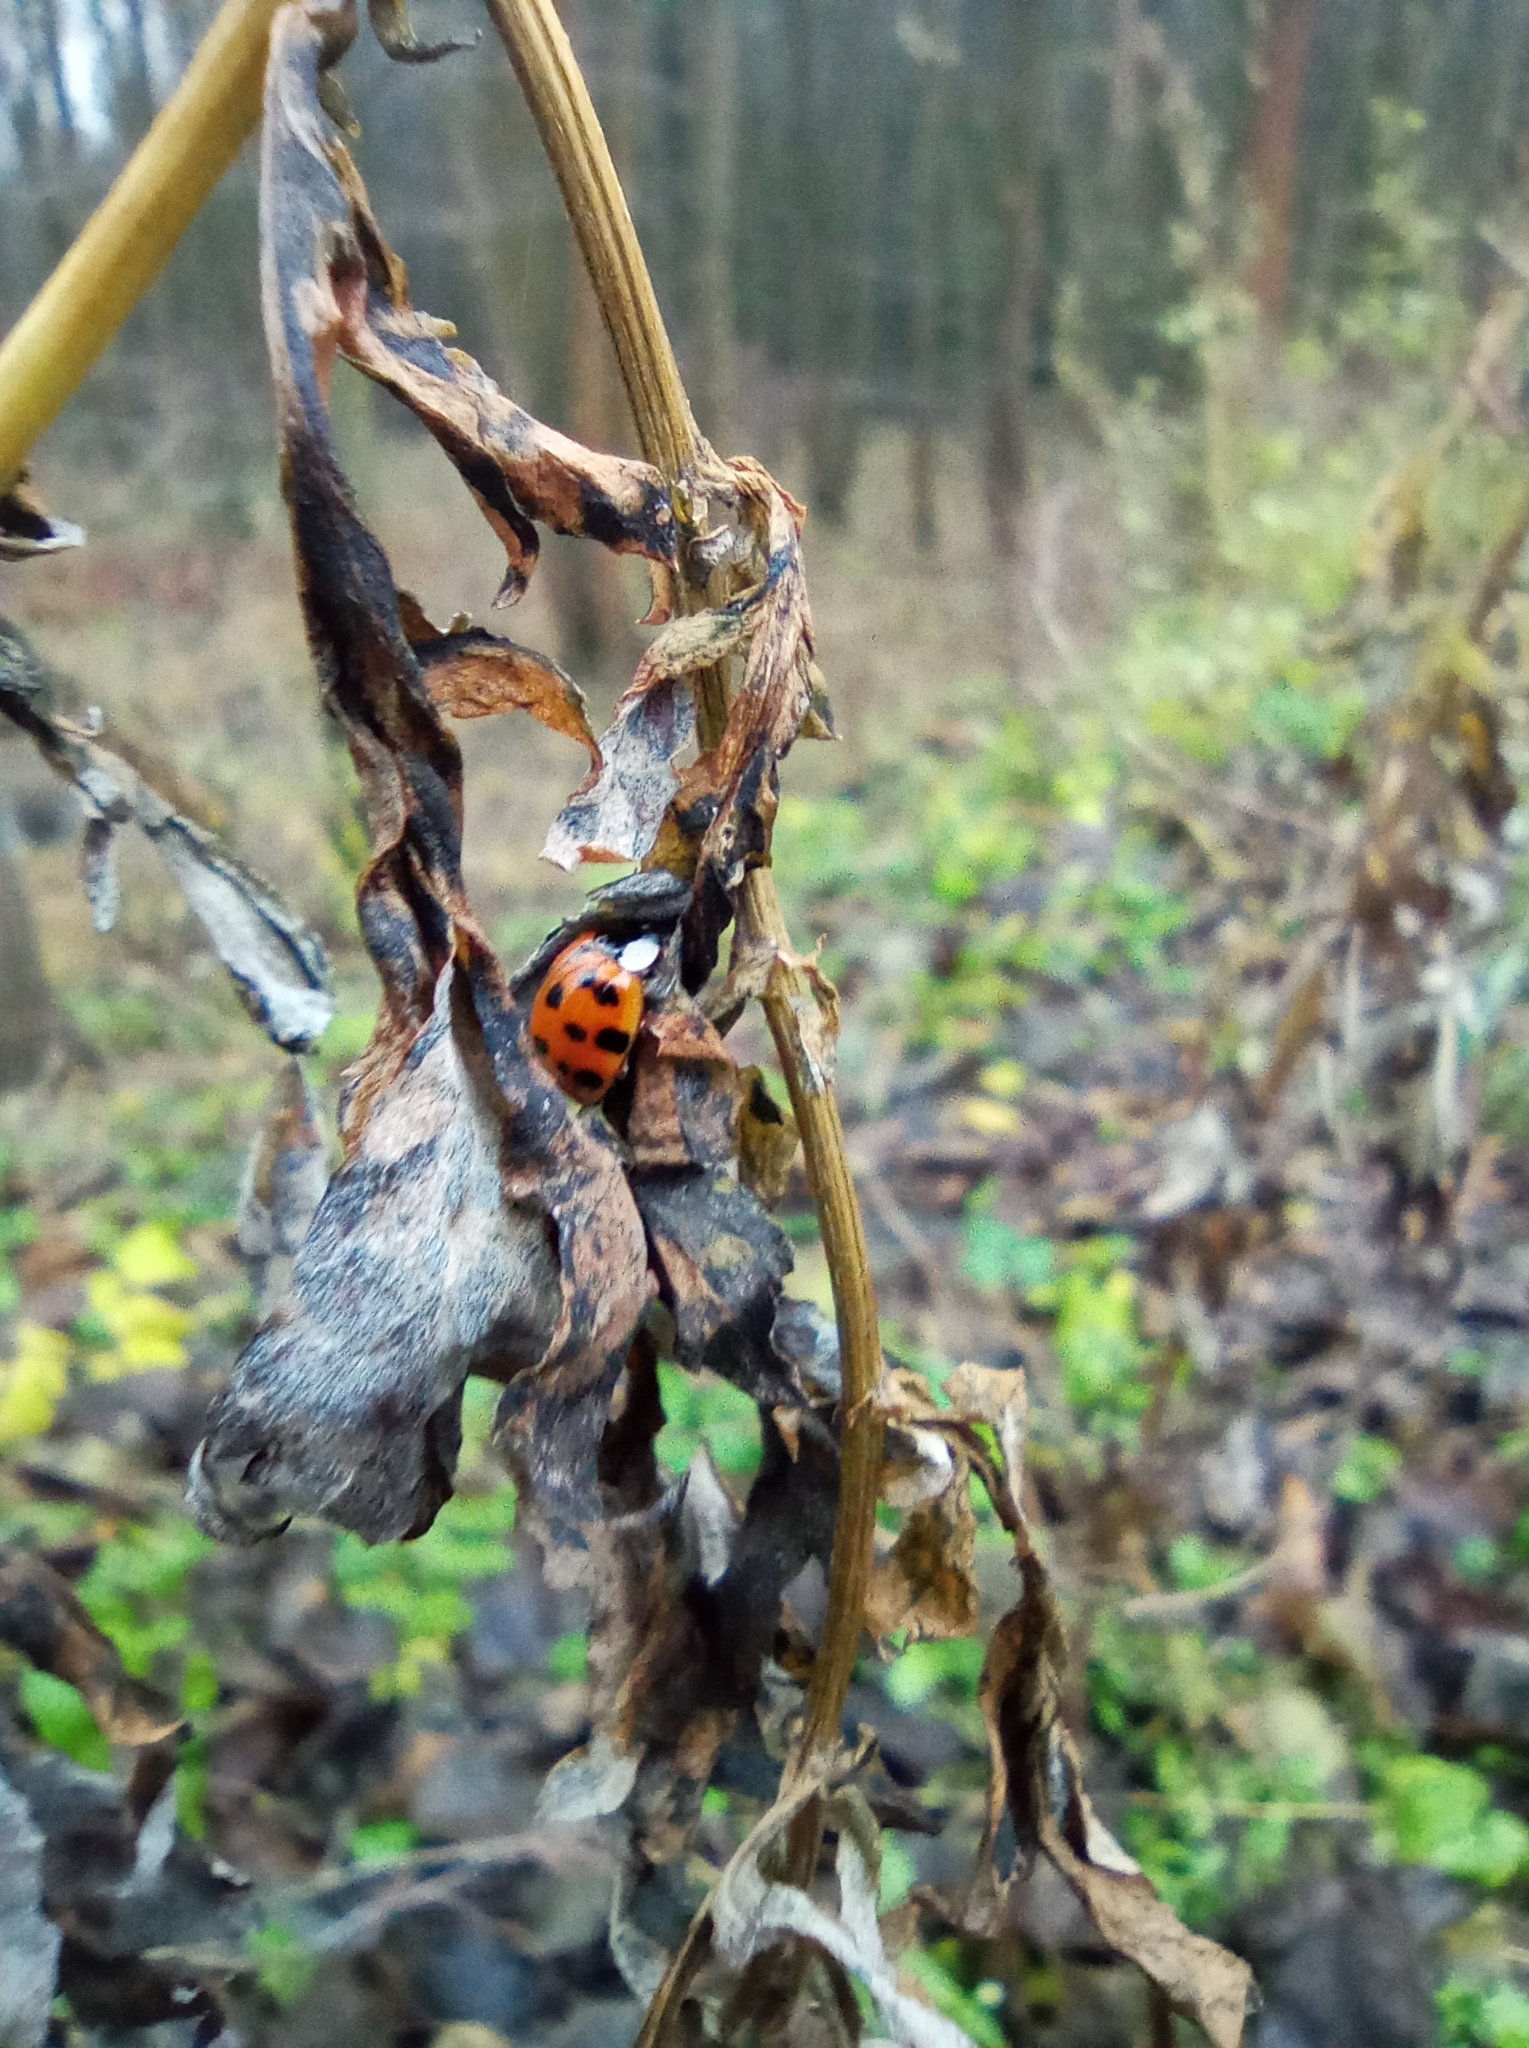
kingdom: Animalia
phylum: Arthropoda
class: Insecta
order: Coleoptera
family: Coccinellidae
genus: Harmonia
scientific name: Harmonia axyridis
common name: Harlequin ladybird
